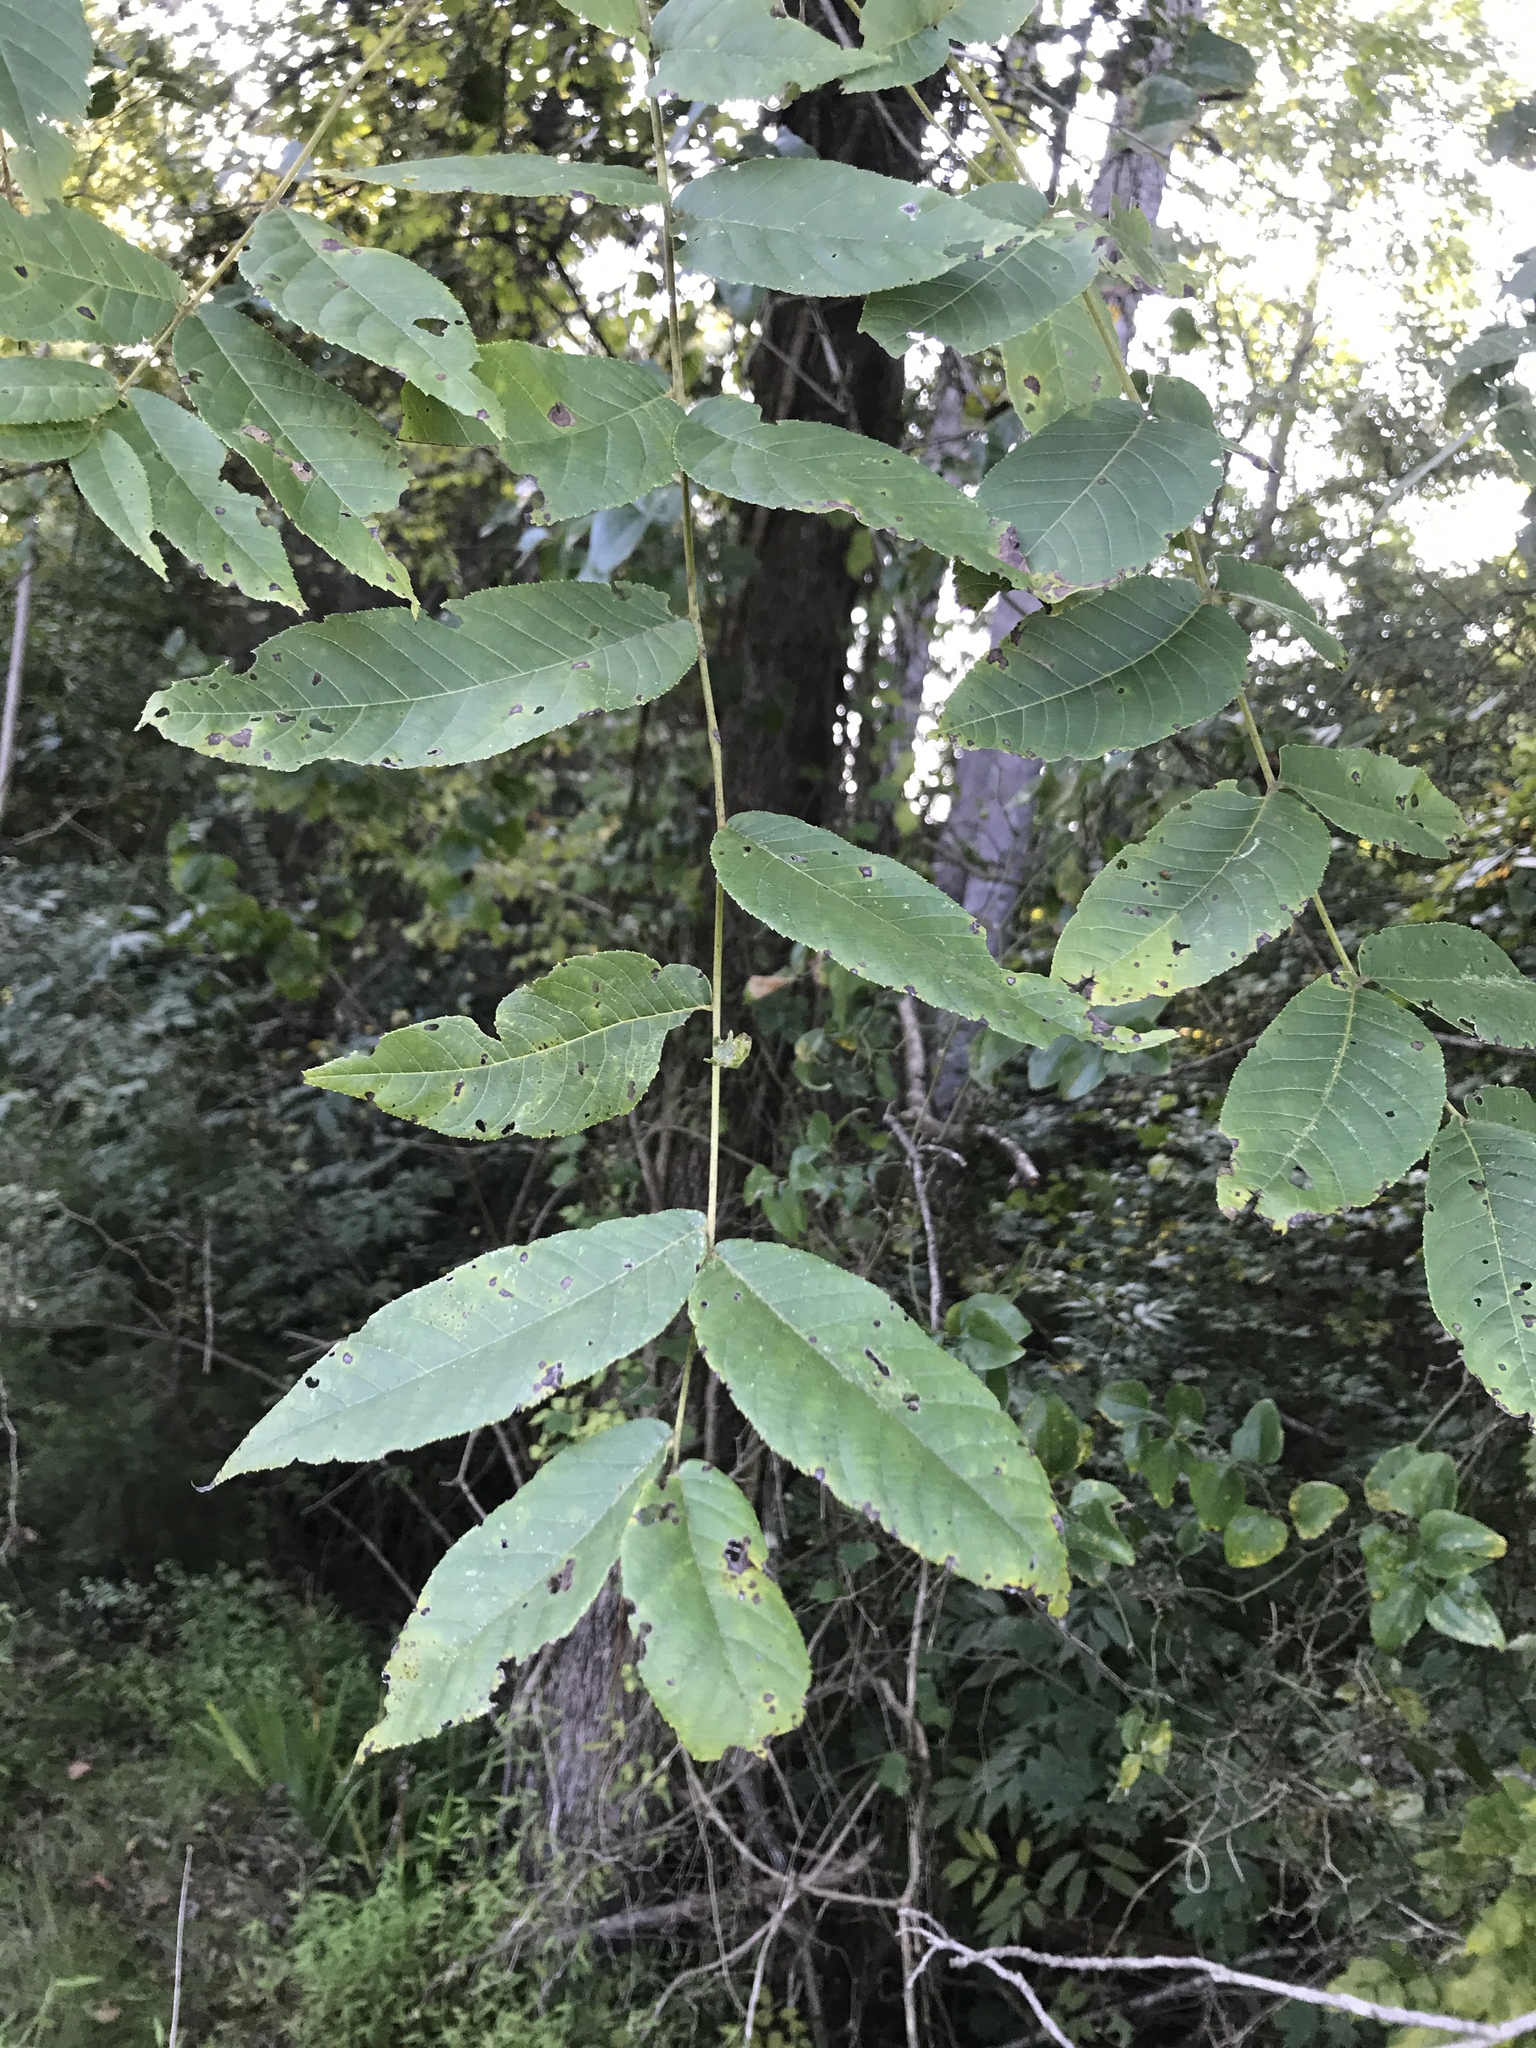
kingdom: Plantae
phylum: Tracheophyta
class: Magnoliopsida
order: Fagales
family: Juglandaceae
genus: Juglans
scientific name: Juglans nigra
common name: Black walnut
